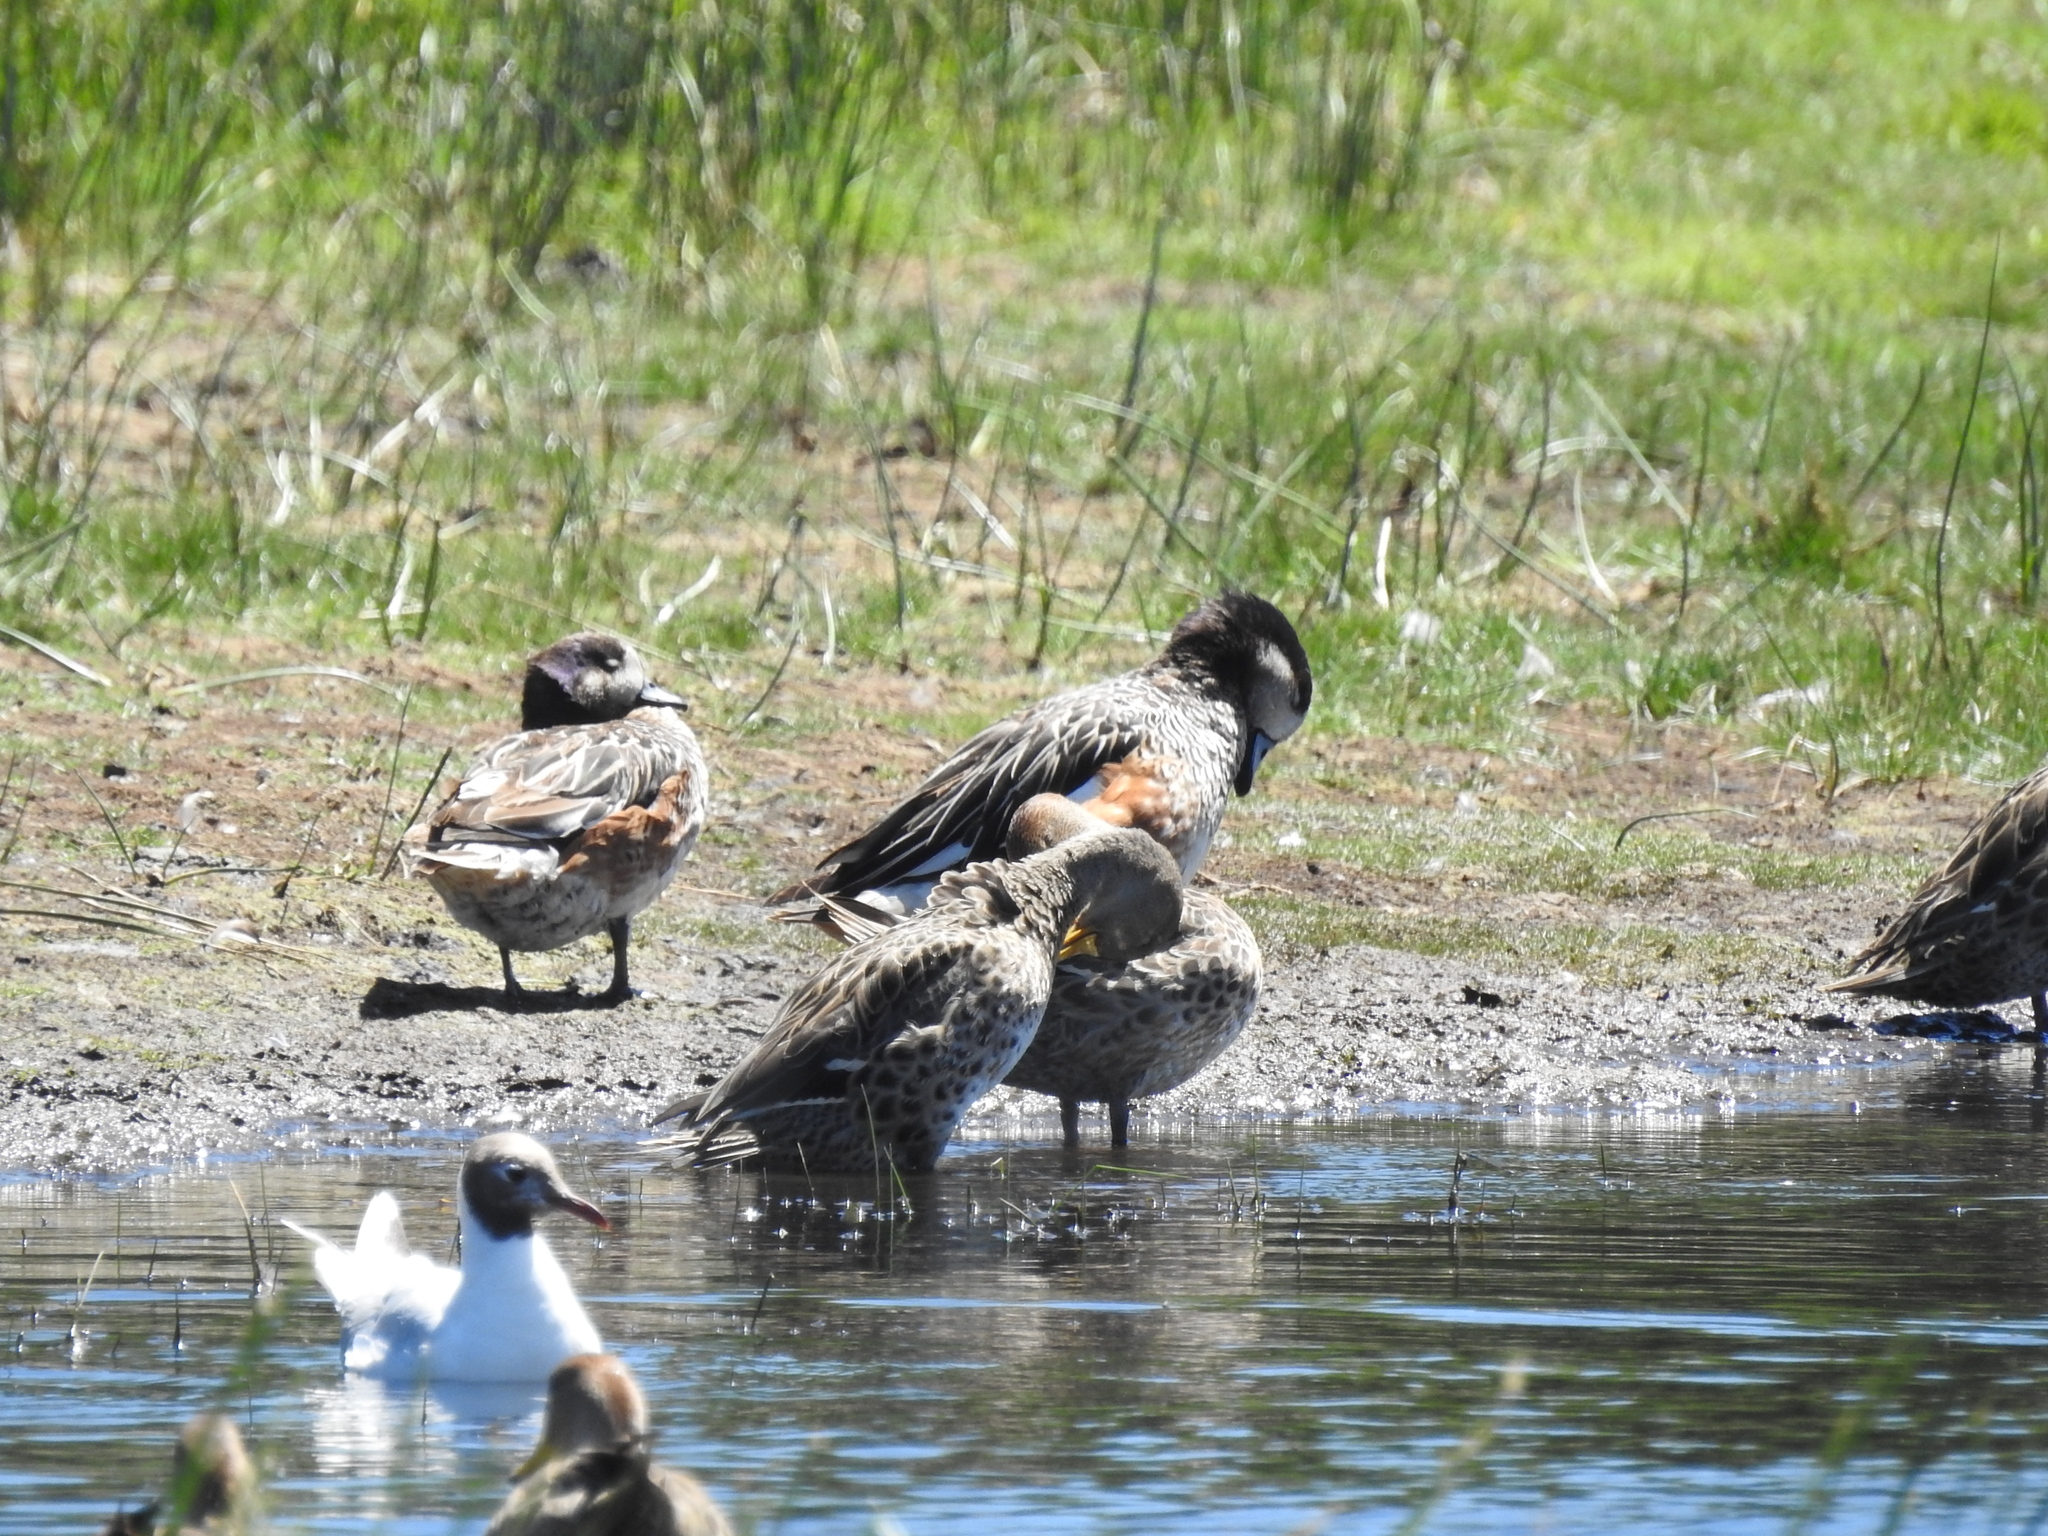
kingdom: Animalia
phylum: Chordata
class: Aves
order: Anseriformes
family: Anatidae
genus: Mareca
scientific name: Mareca sibilatrix
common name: Chiloe wigeon
